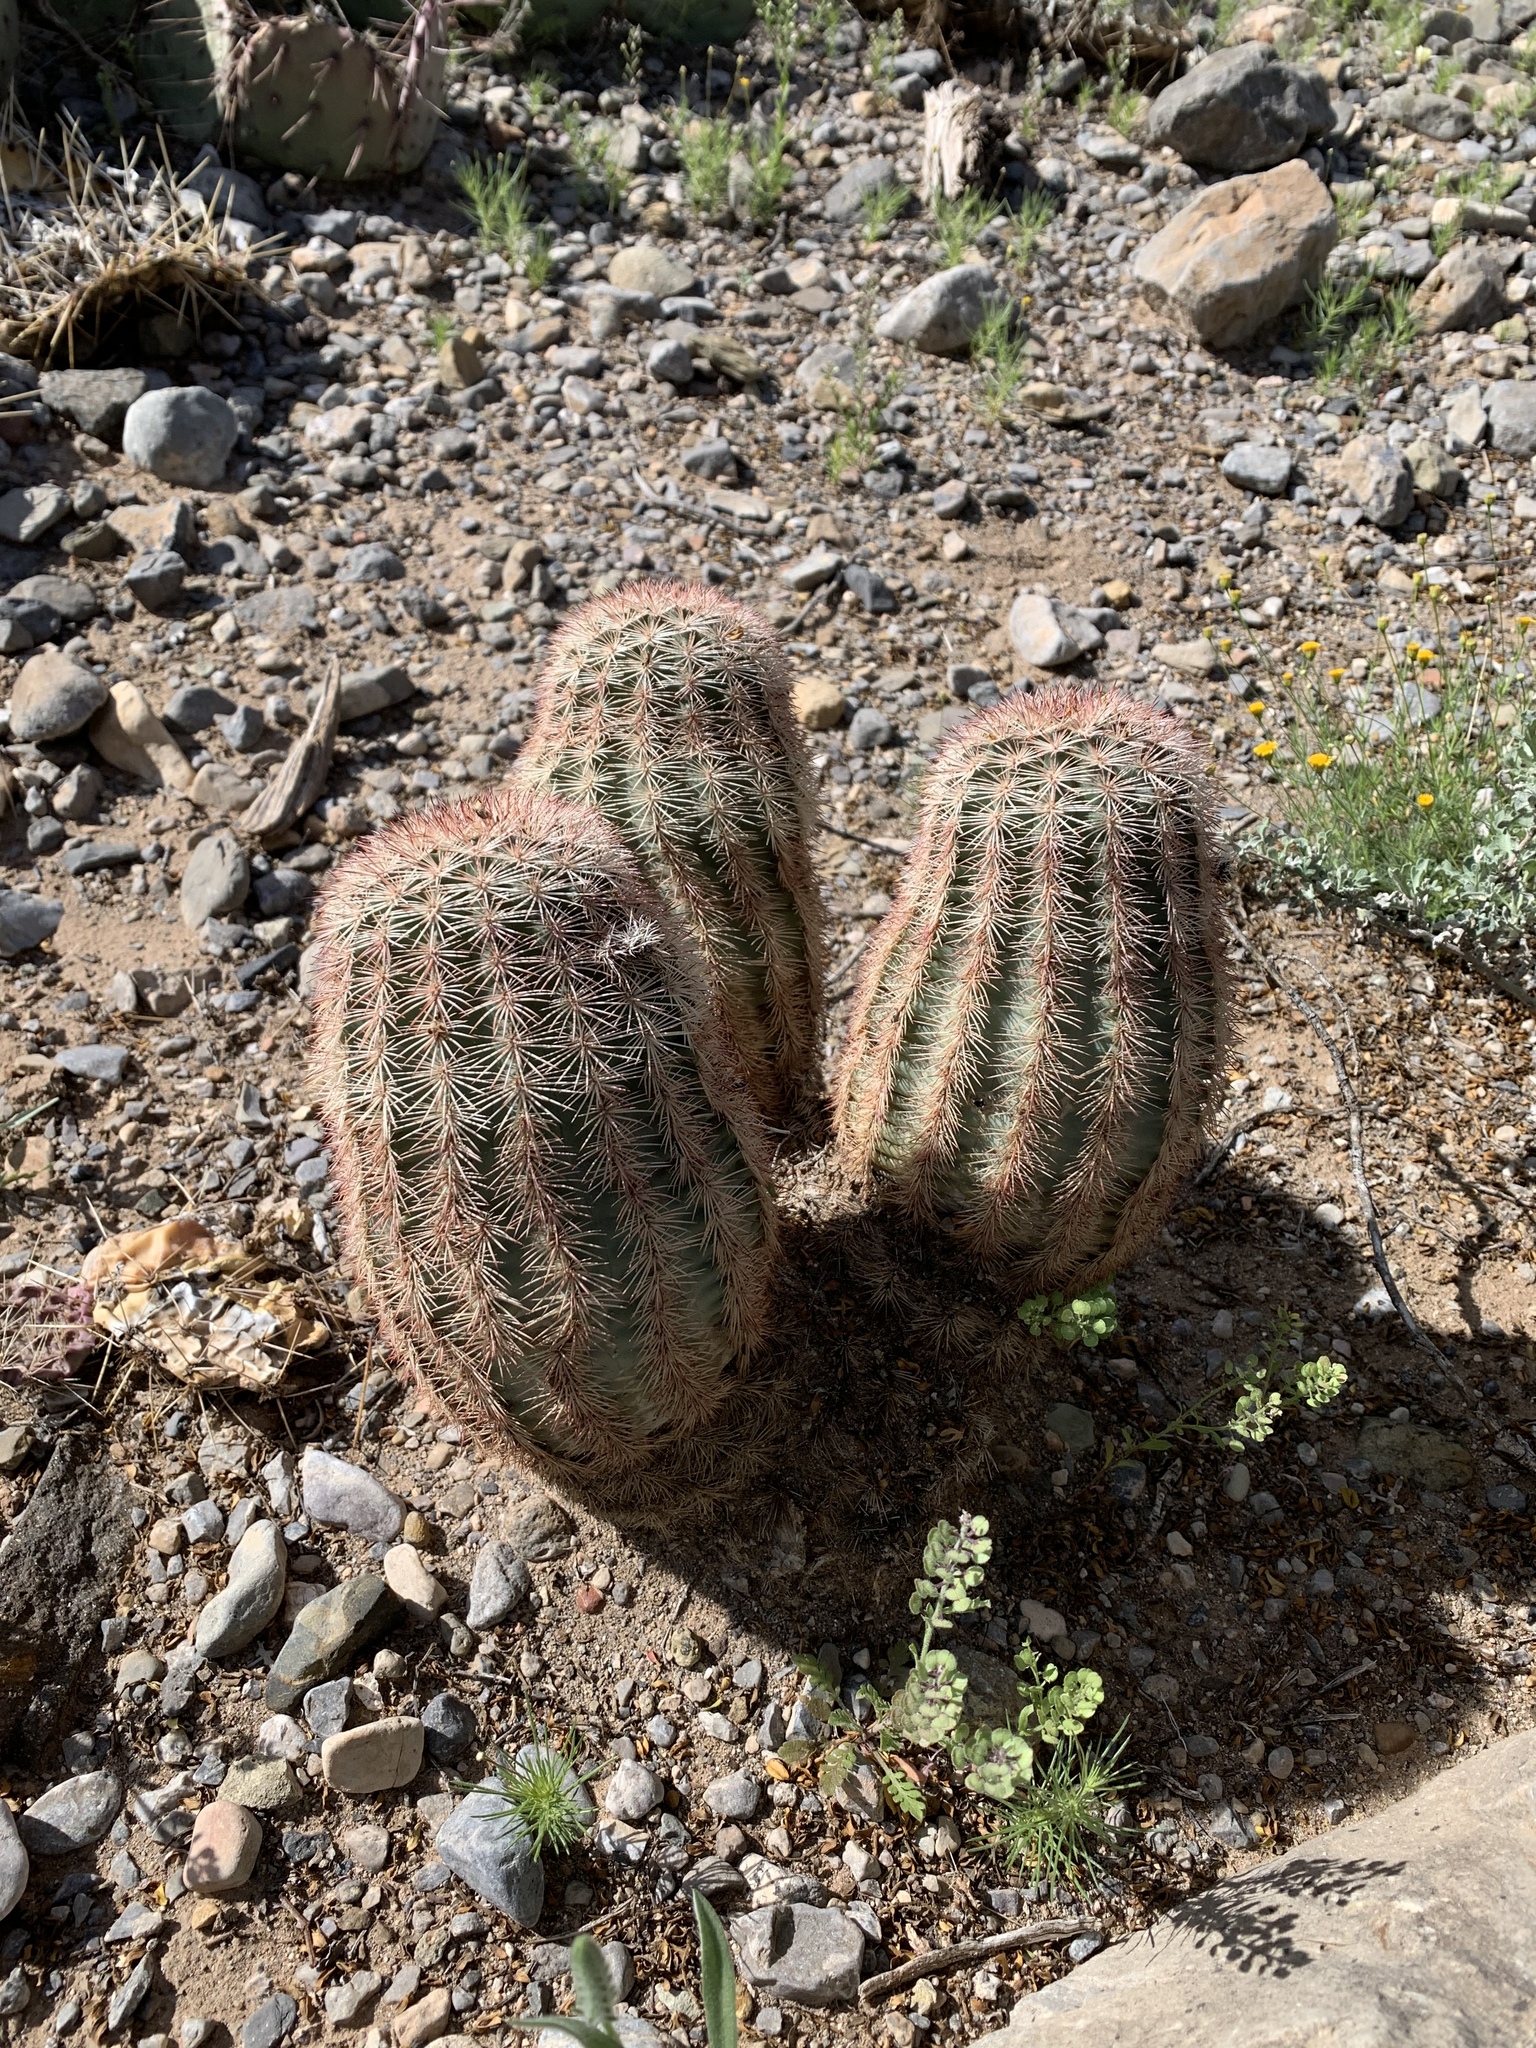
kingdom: Plantae
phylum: Tracheophyta
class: Magnoliopsida
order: Caryophyllales
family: Cactaceae
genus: Echinocereus
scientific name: Echinocereus dasyacanthus
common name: Spiny hedgehog cactus
